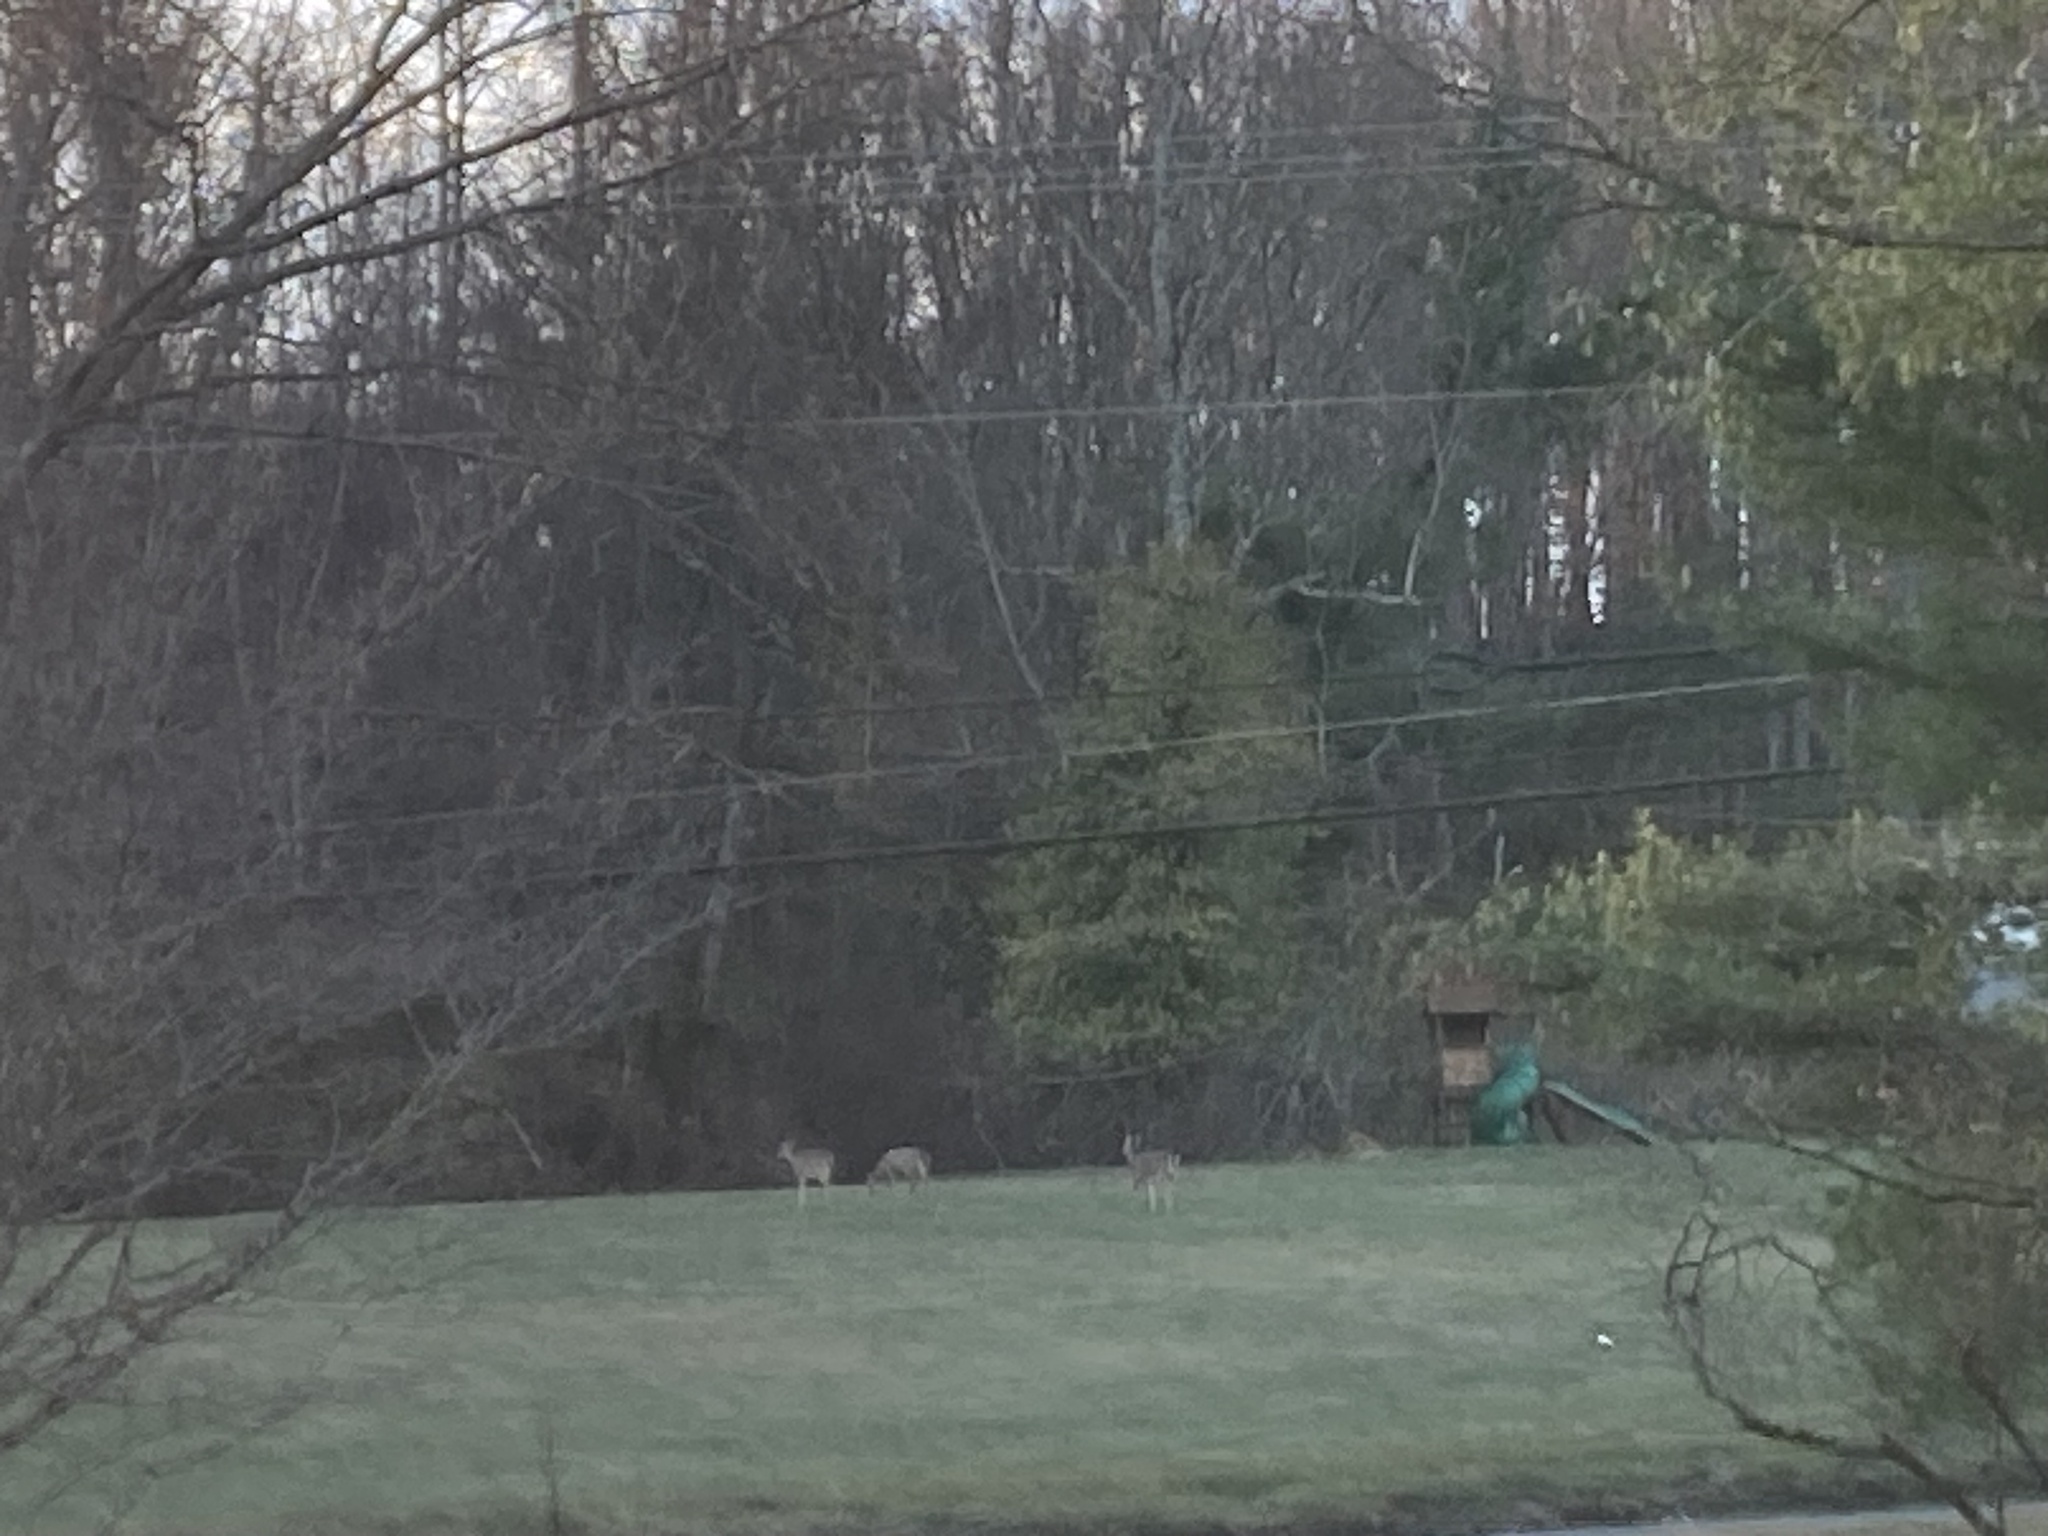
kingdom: Animalia
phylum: Chordata
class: Mammalia
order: Artiodactyla
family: Cervidae
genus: Odocoileus
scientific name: Odocoileus virginianus
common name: White-tailed deer
